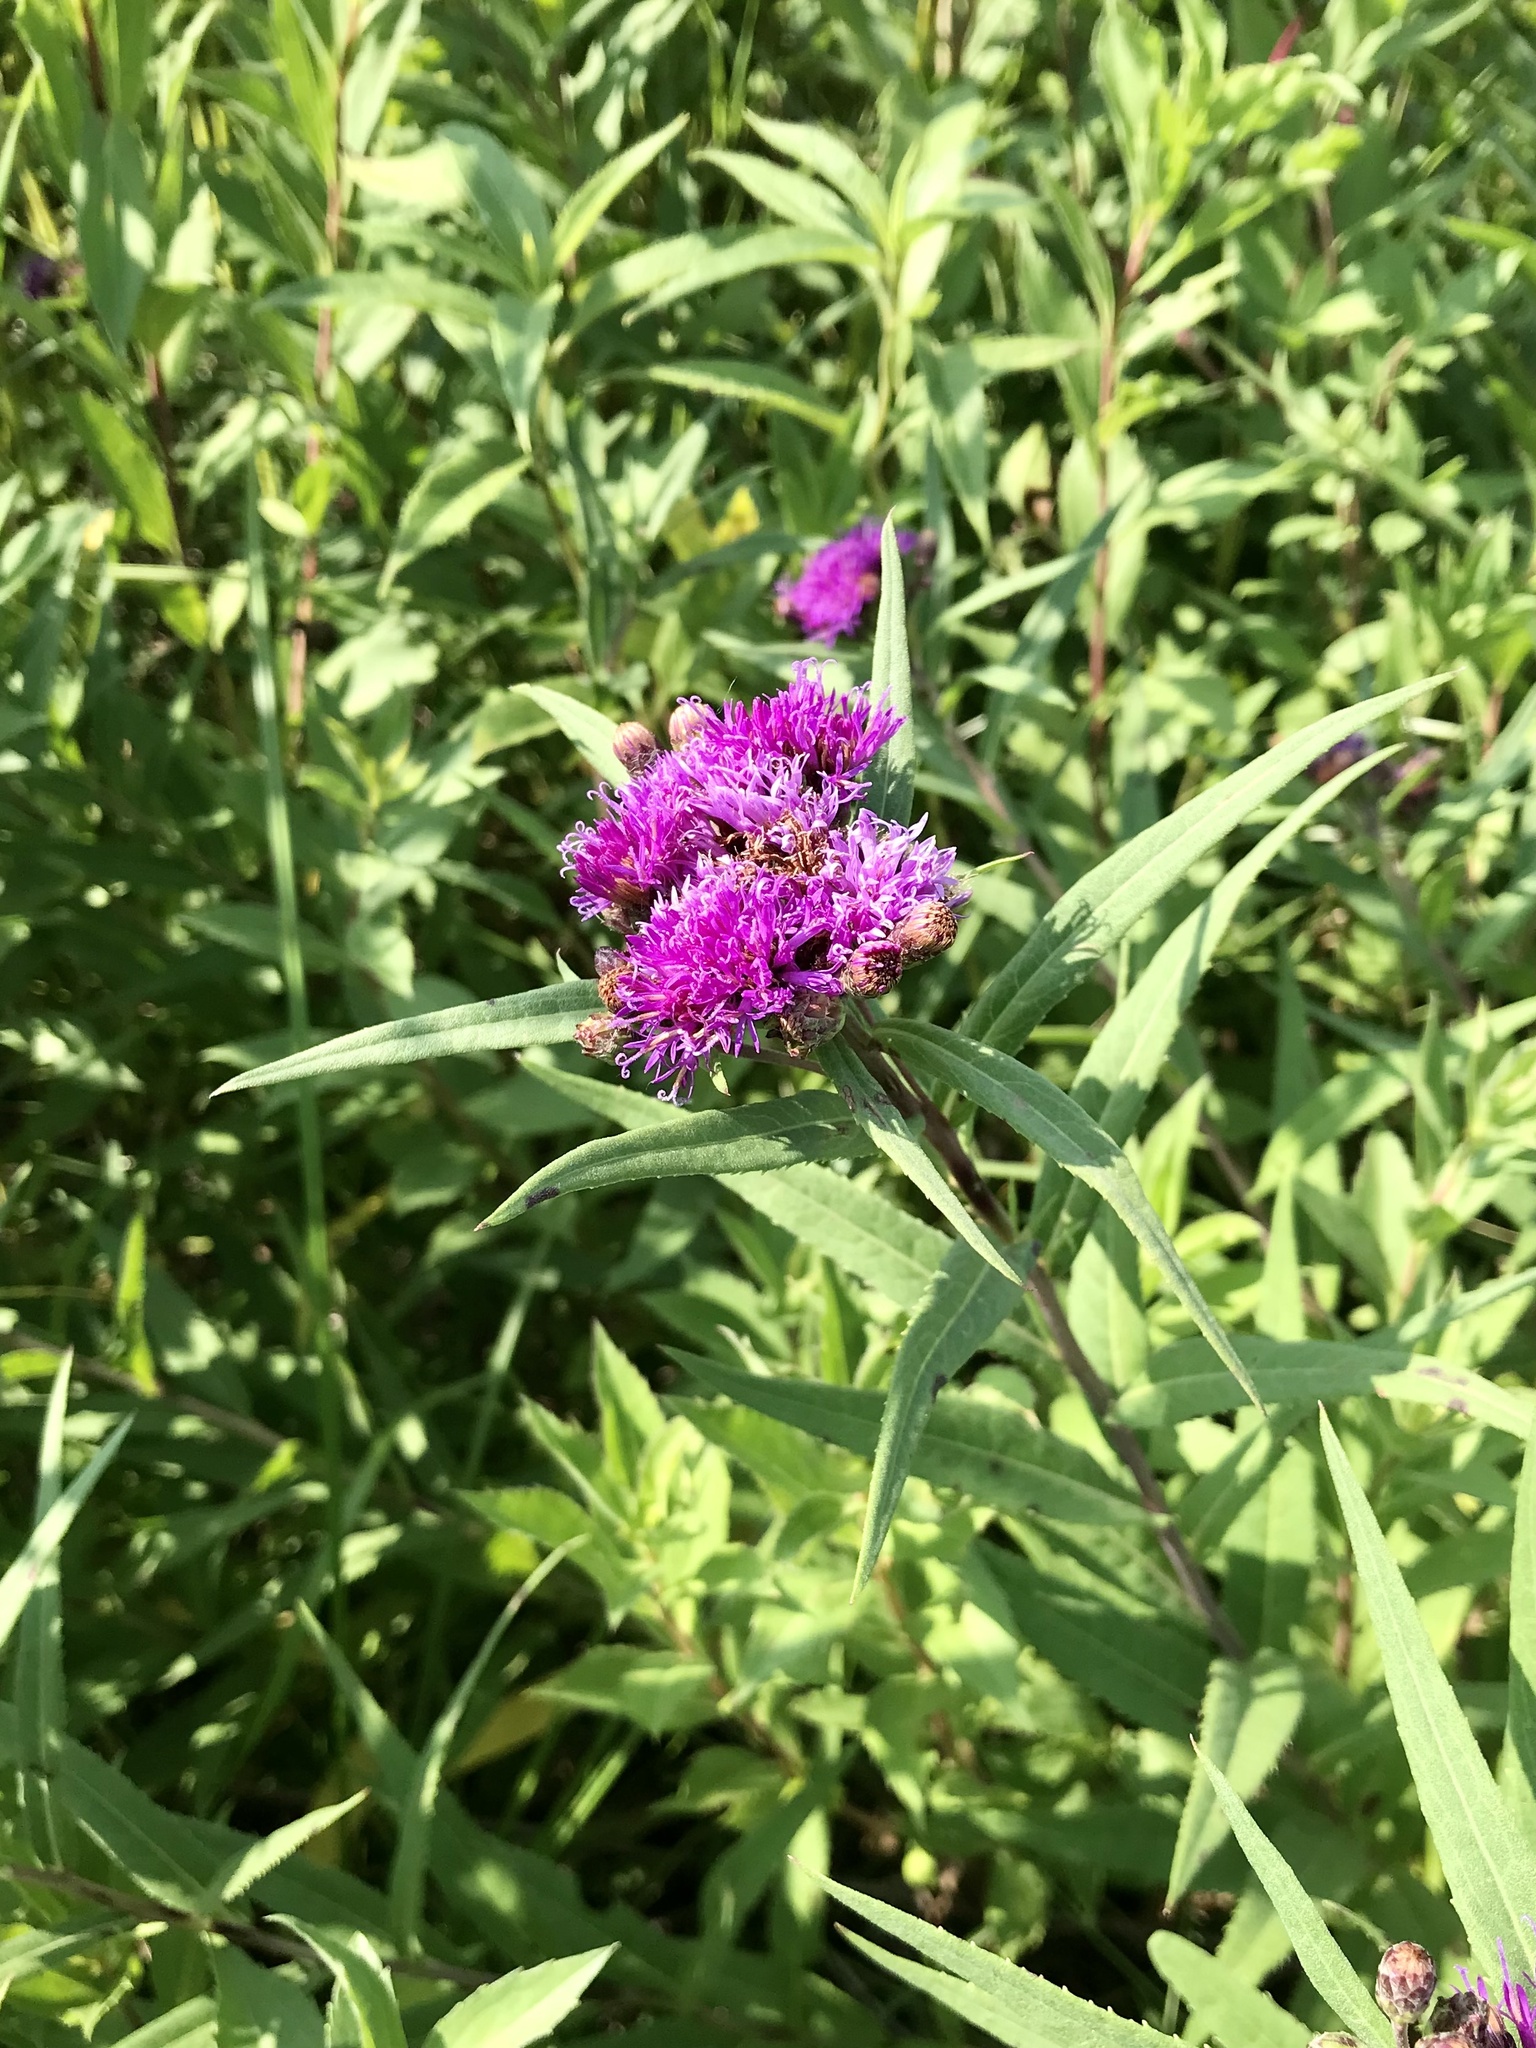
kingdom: Plantae
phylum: Tracheophyta
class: Magnoliopsida
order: Asterales
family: Asteraceae
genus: Vernonia
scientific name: Vernonia fasciculata
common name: Fascicled ironweed
